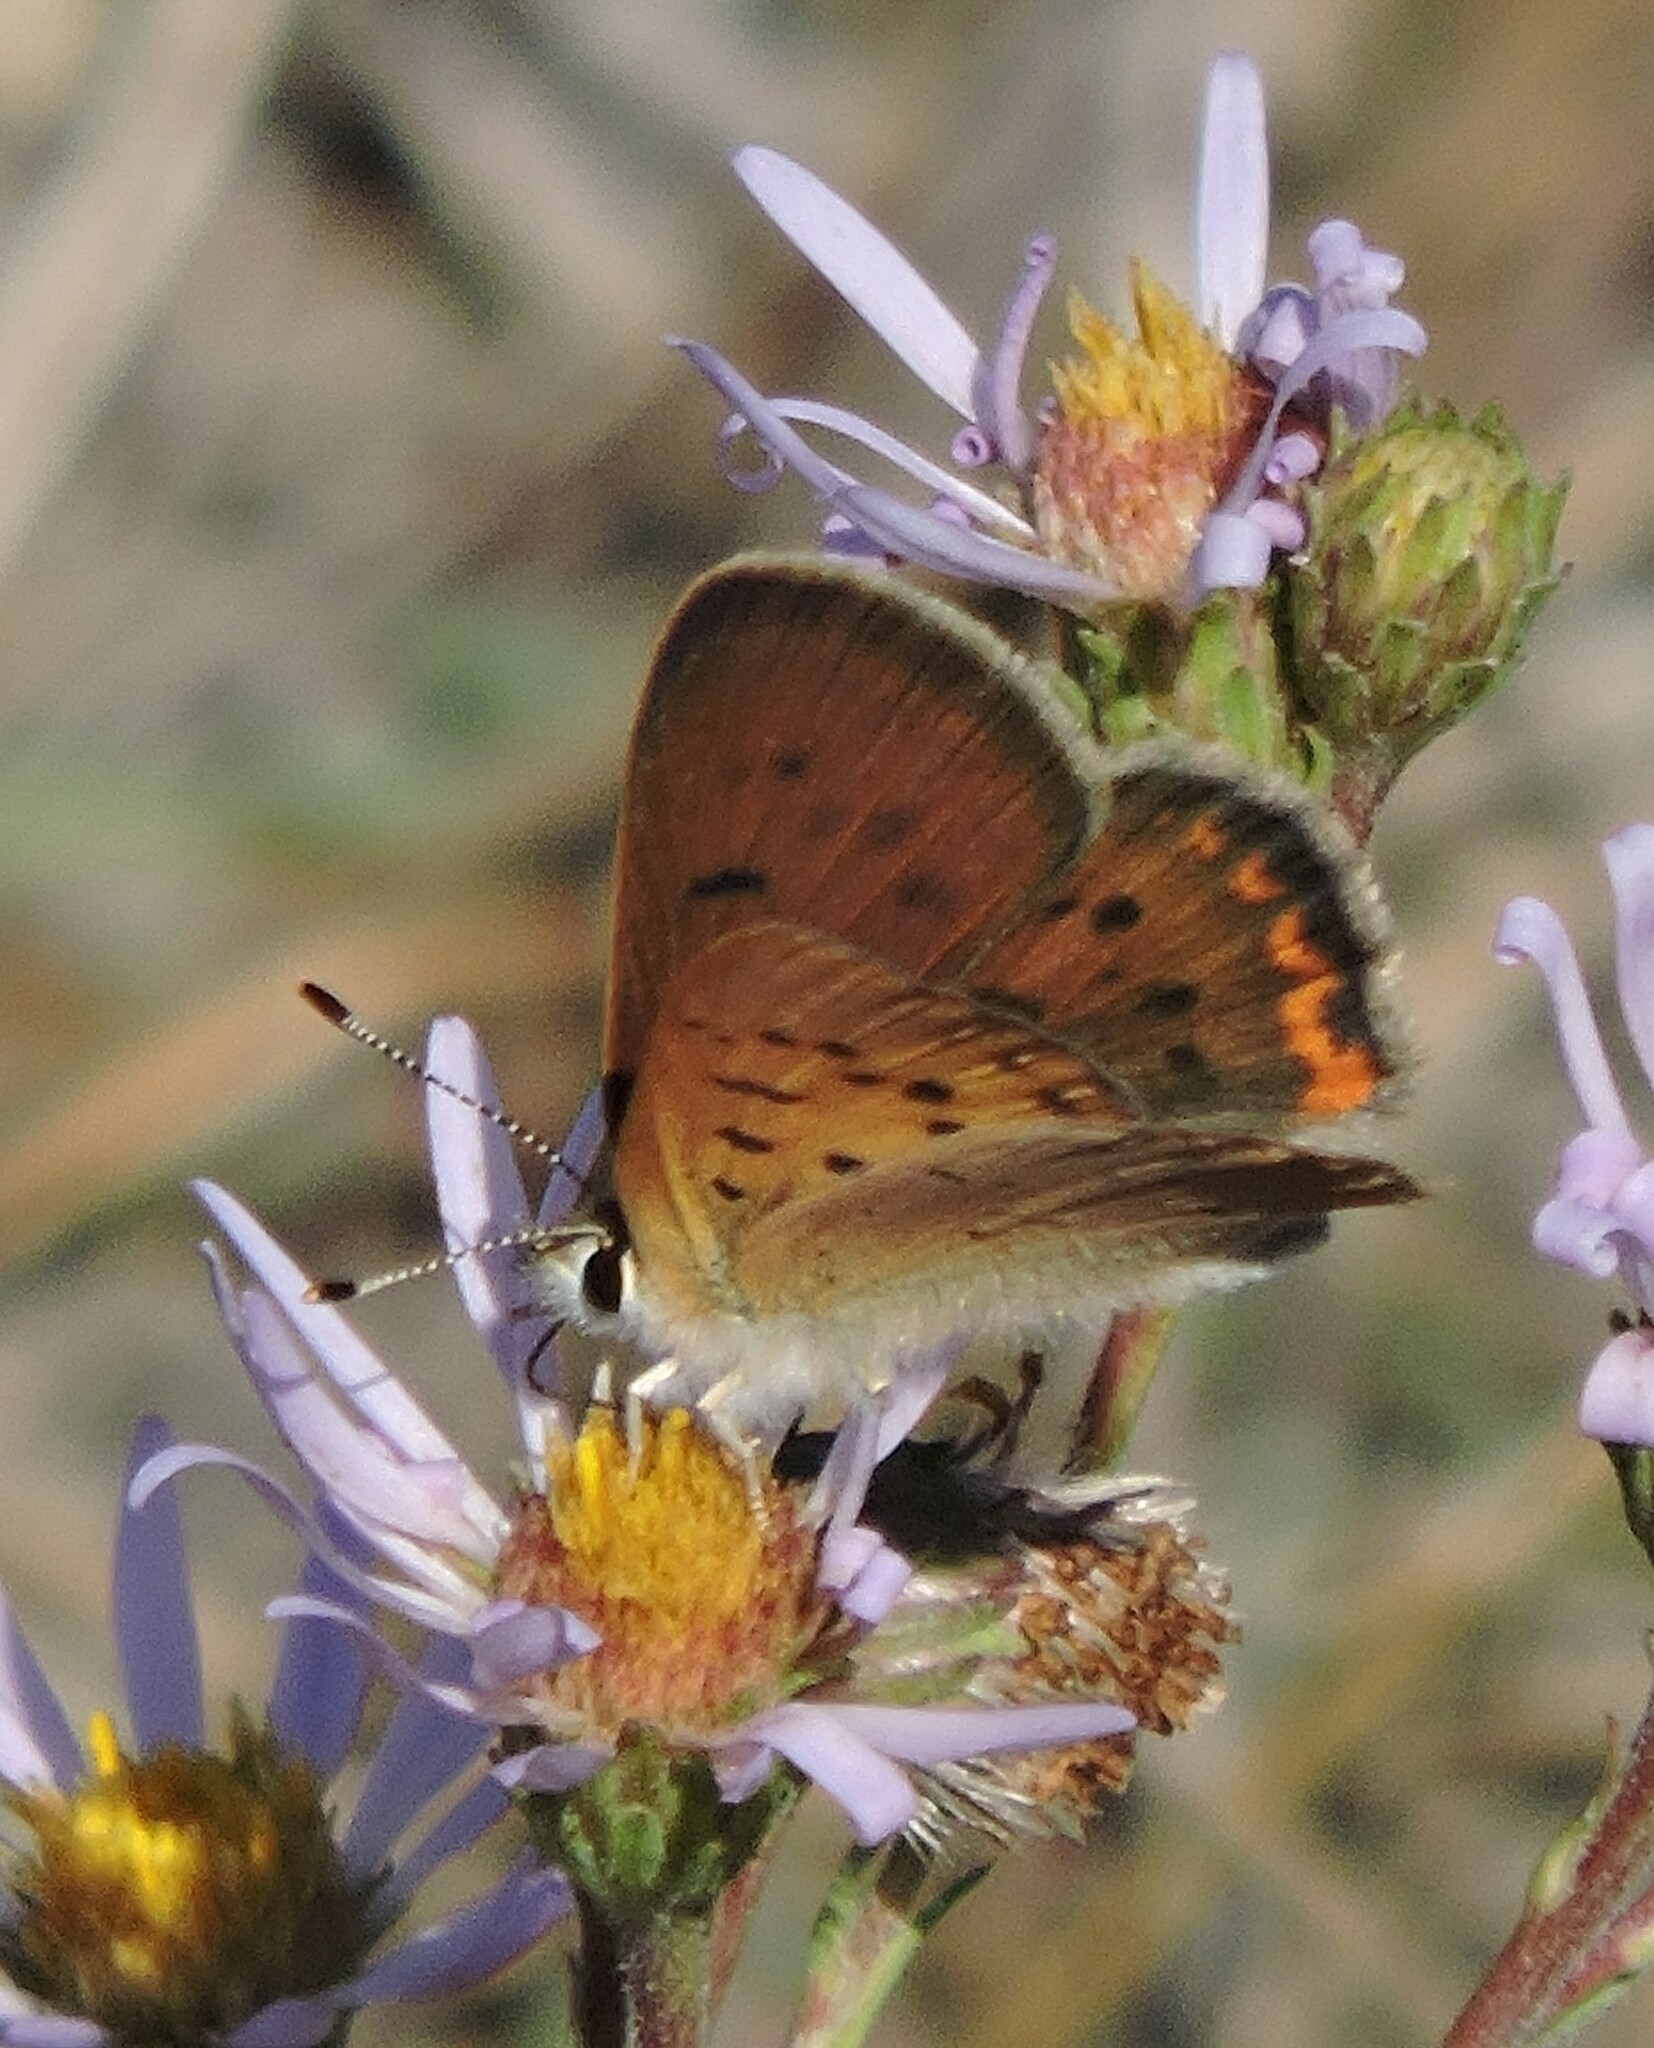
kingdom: Animalia
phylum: Arthropoda
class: Insecta
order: Lepidoptera
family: Lycaenidae
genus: Tharsalea
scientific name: Tharsalea helloides
